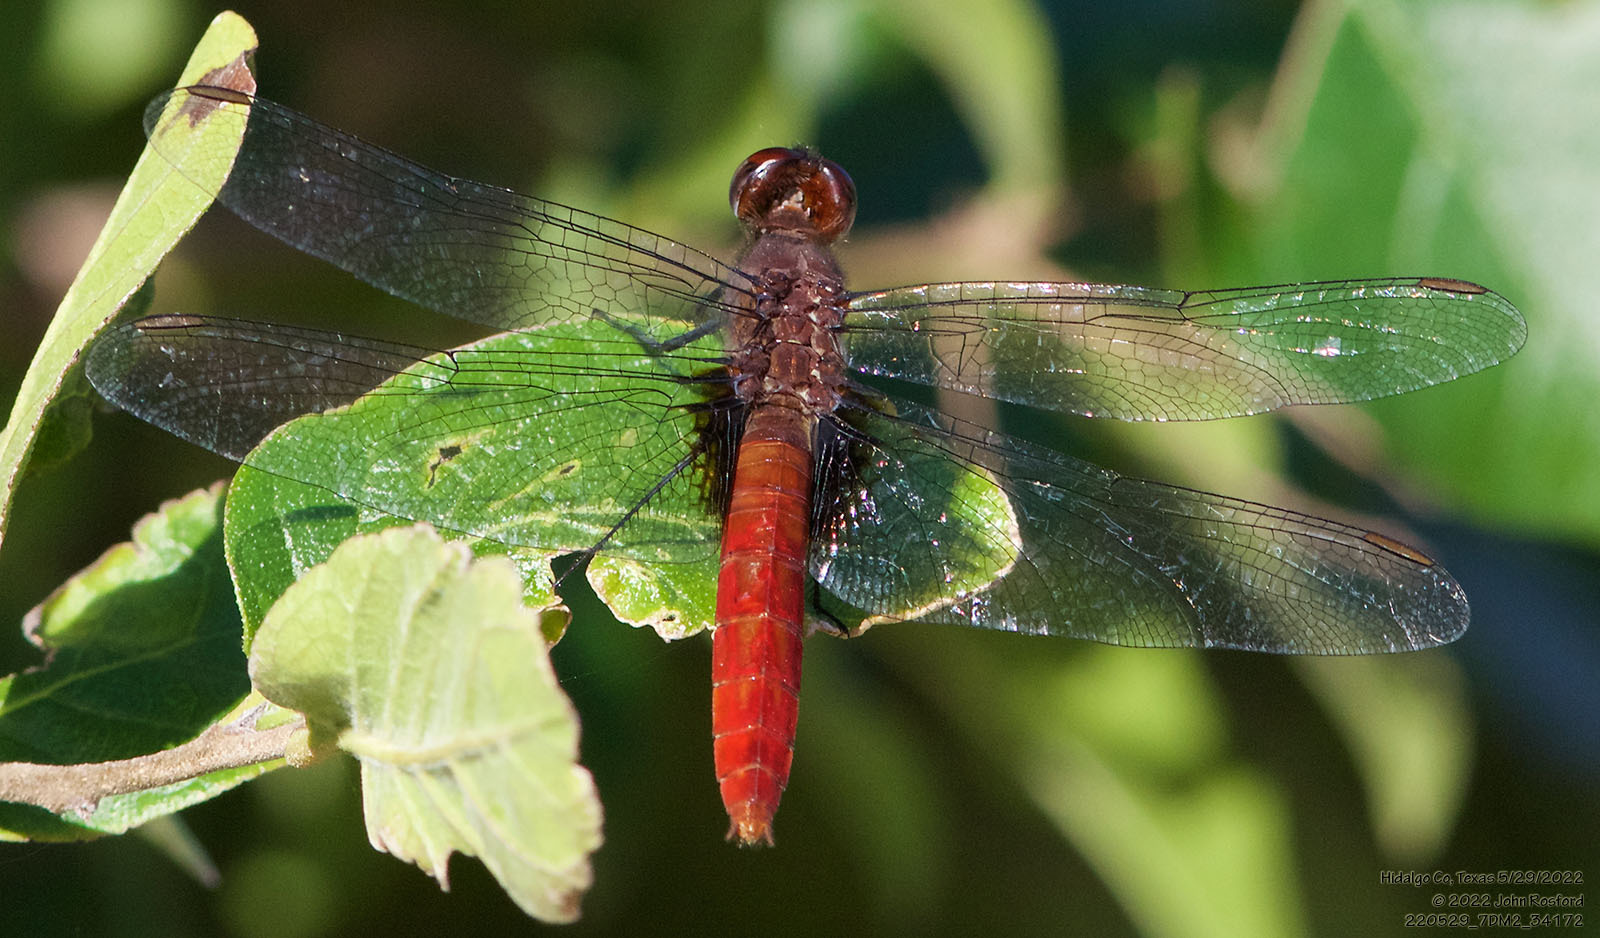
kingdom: Animalia
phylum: Arthropoda
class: Insecta
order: Odonata
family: Libellulidae
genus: Planiplax
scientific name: Planiplax sanguiniventris
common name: Mexican scarlet-tail
